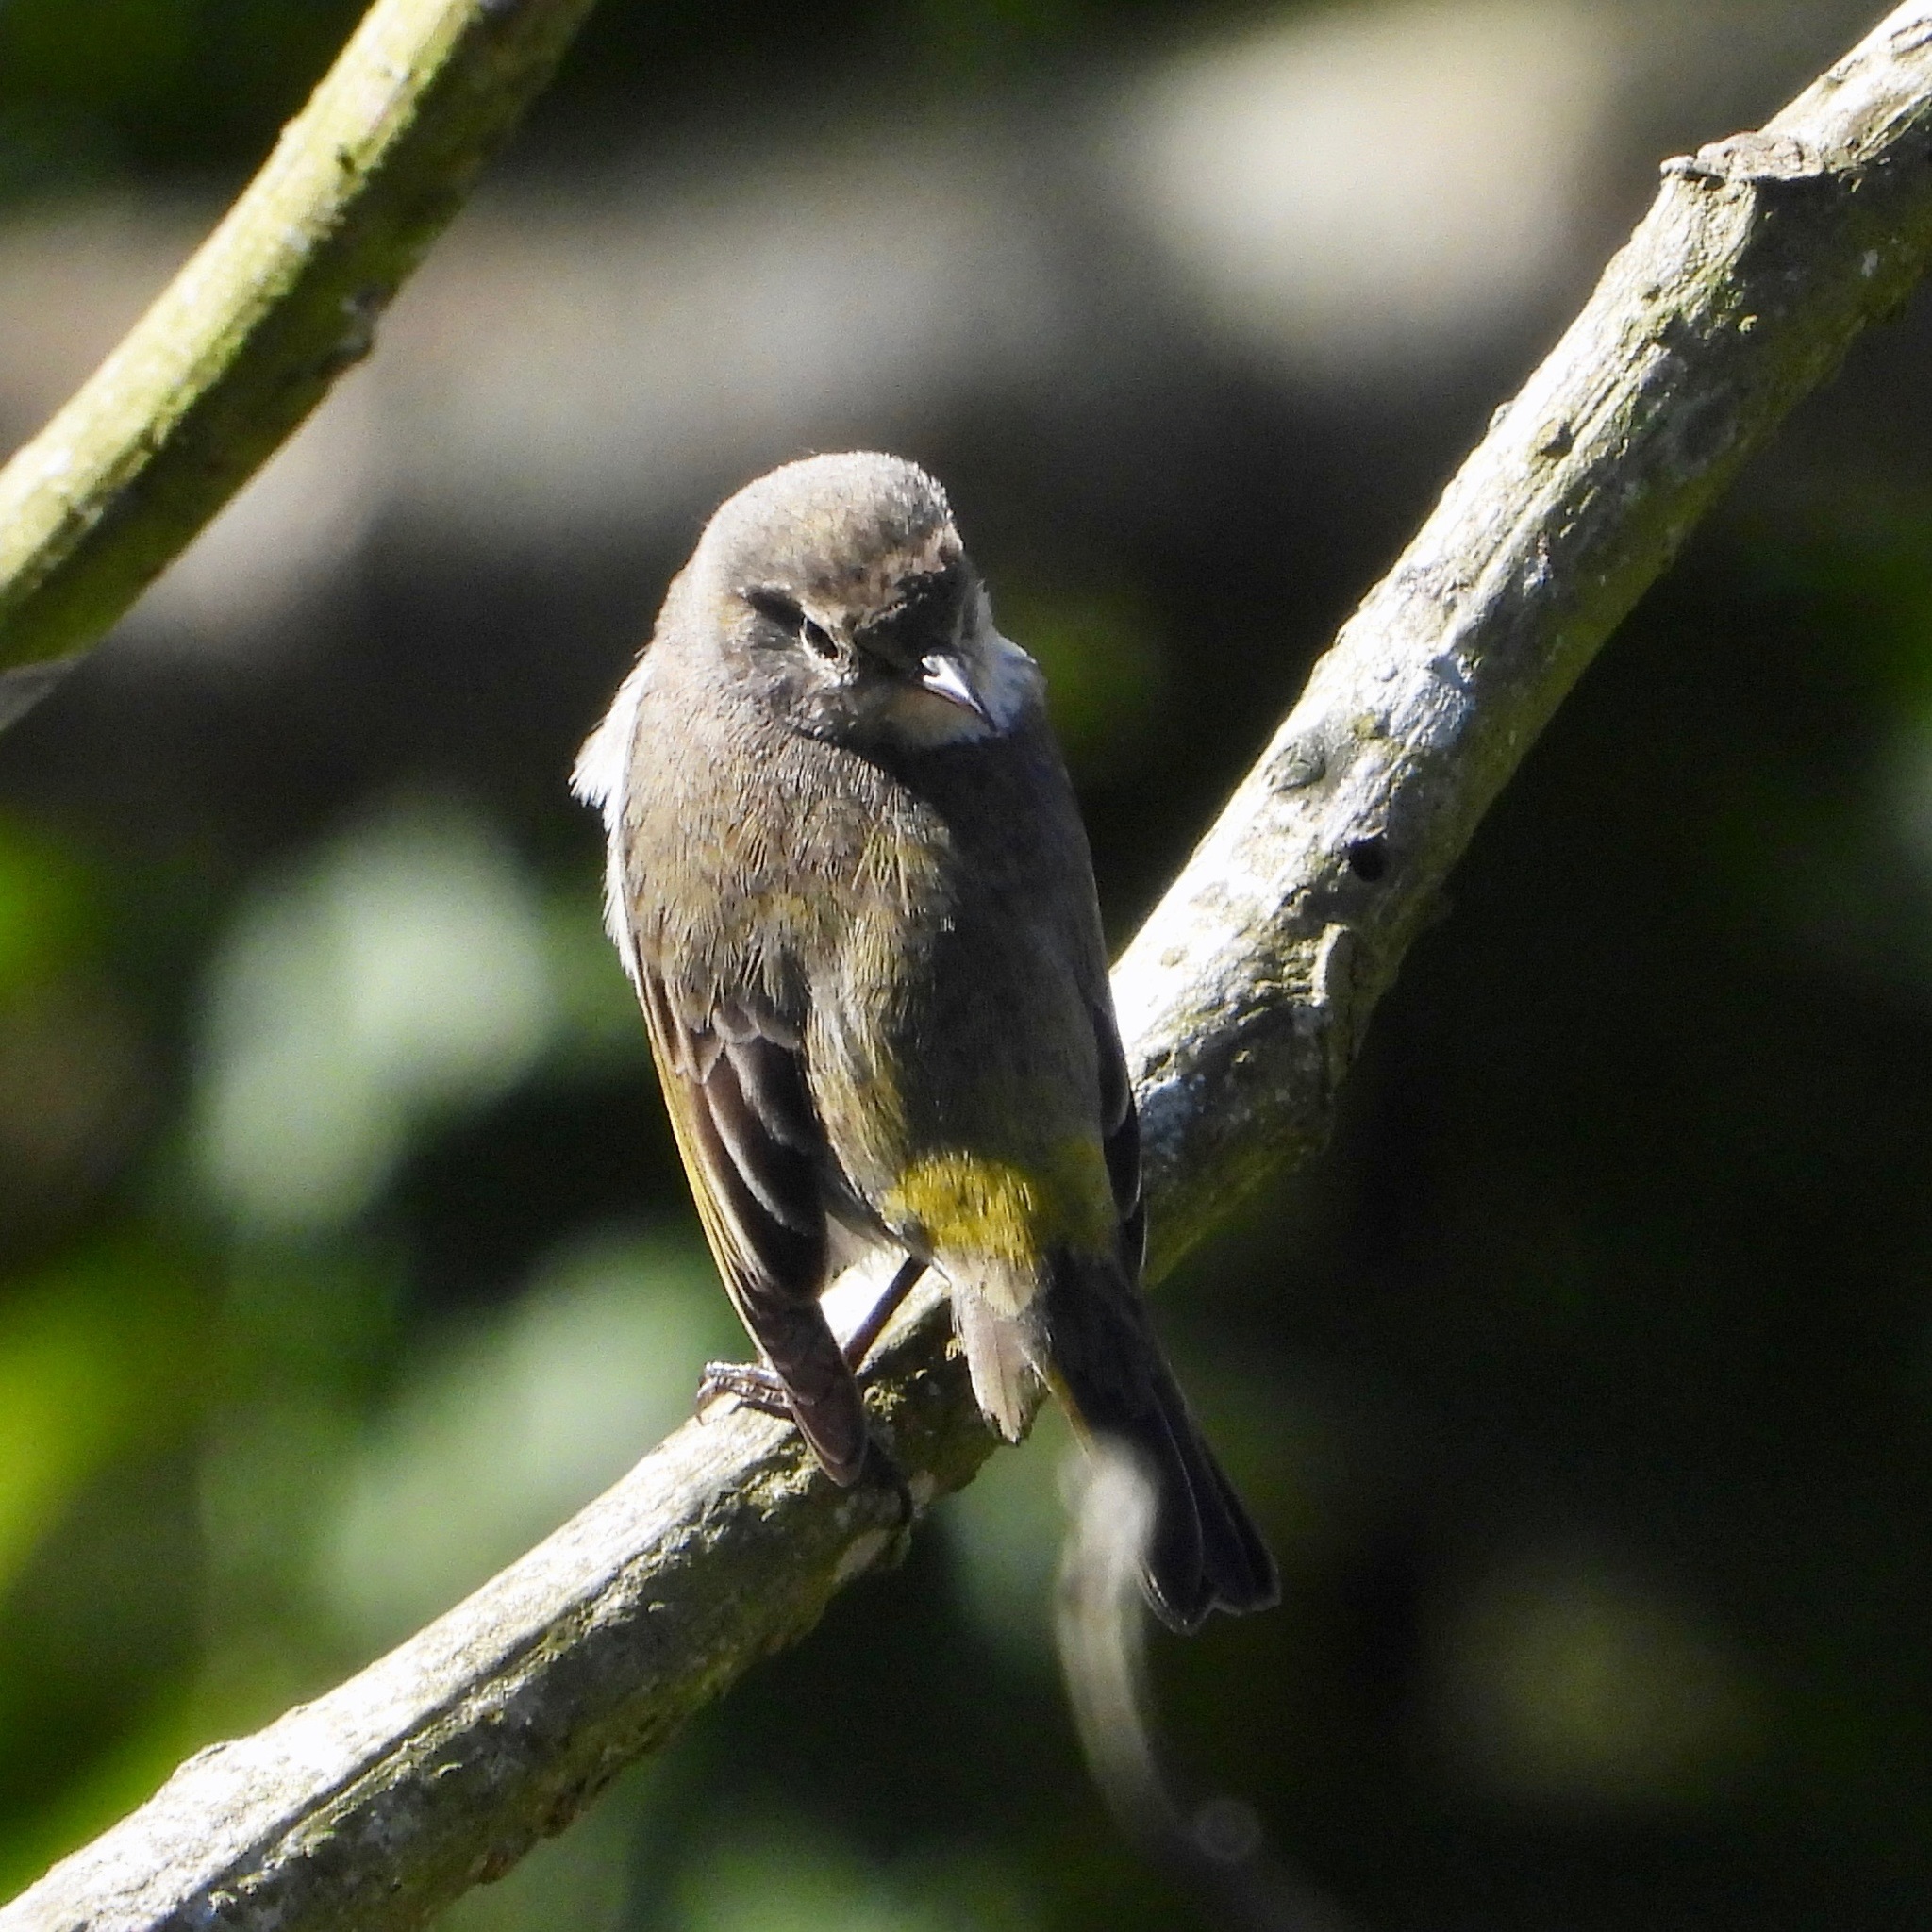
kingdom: Animalia
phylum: Chordata
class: Aves
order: Passeriformes
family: Parulidae
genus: Setophaga
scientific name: Setophaga tigrina
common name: Cape may warbler
